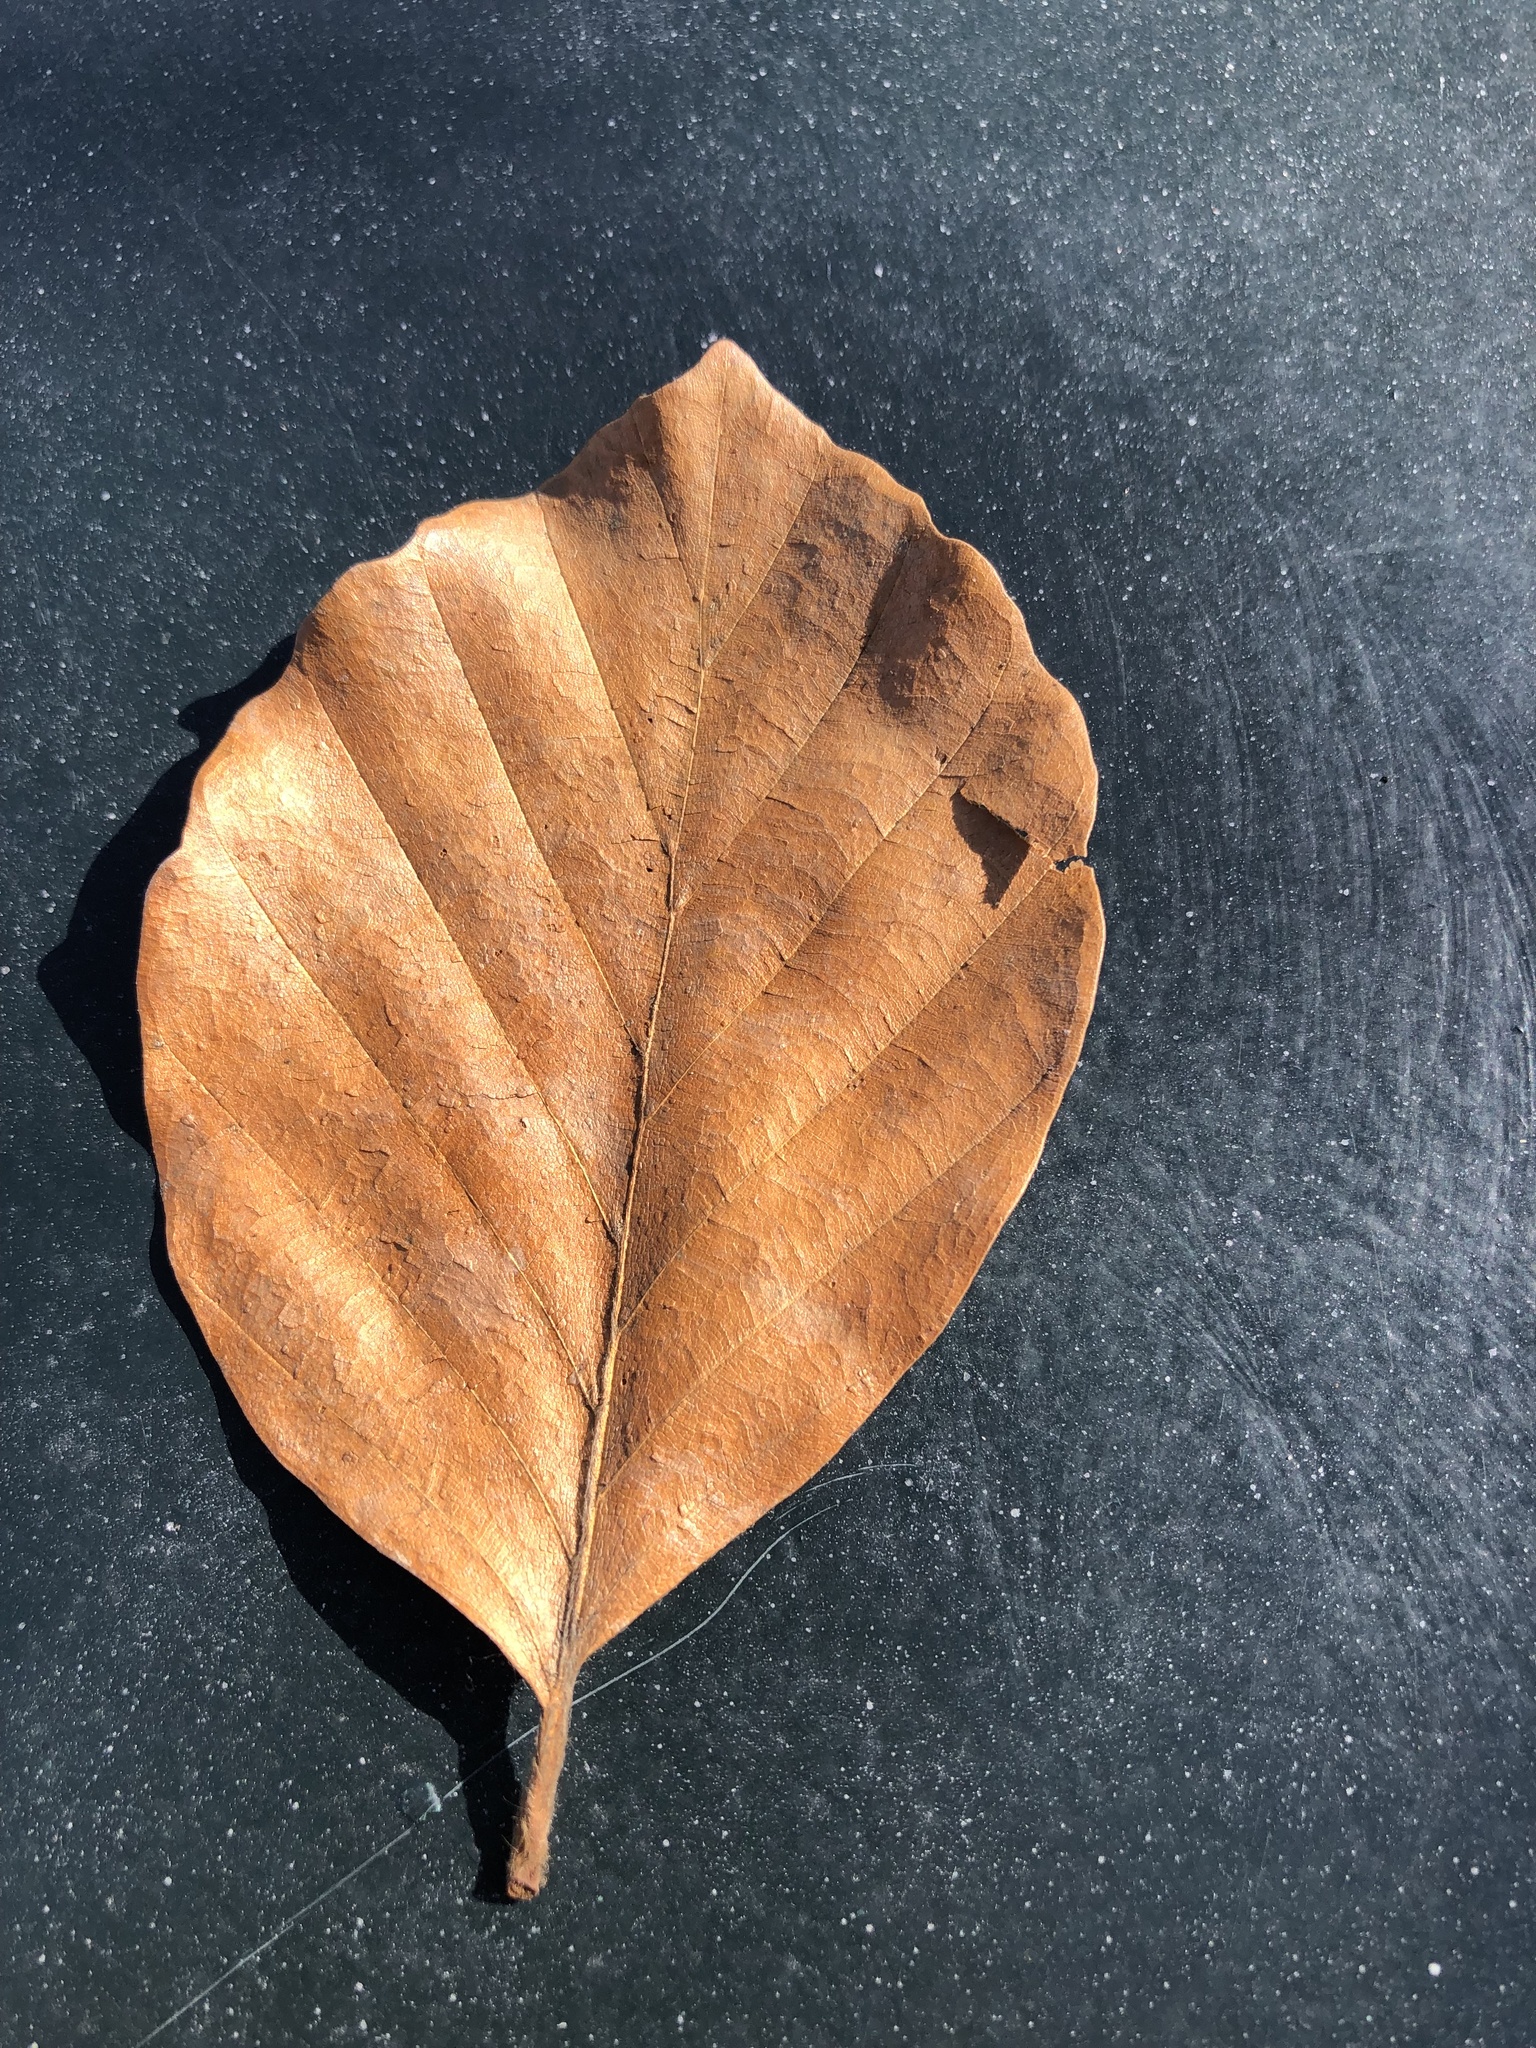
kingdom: Plantae
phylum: Tracheophyta
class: Magnoliopsida
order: Fagales
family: Fagaceae
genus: Fagus
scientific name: Fagus sylvatica
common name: Beech
